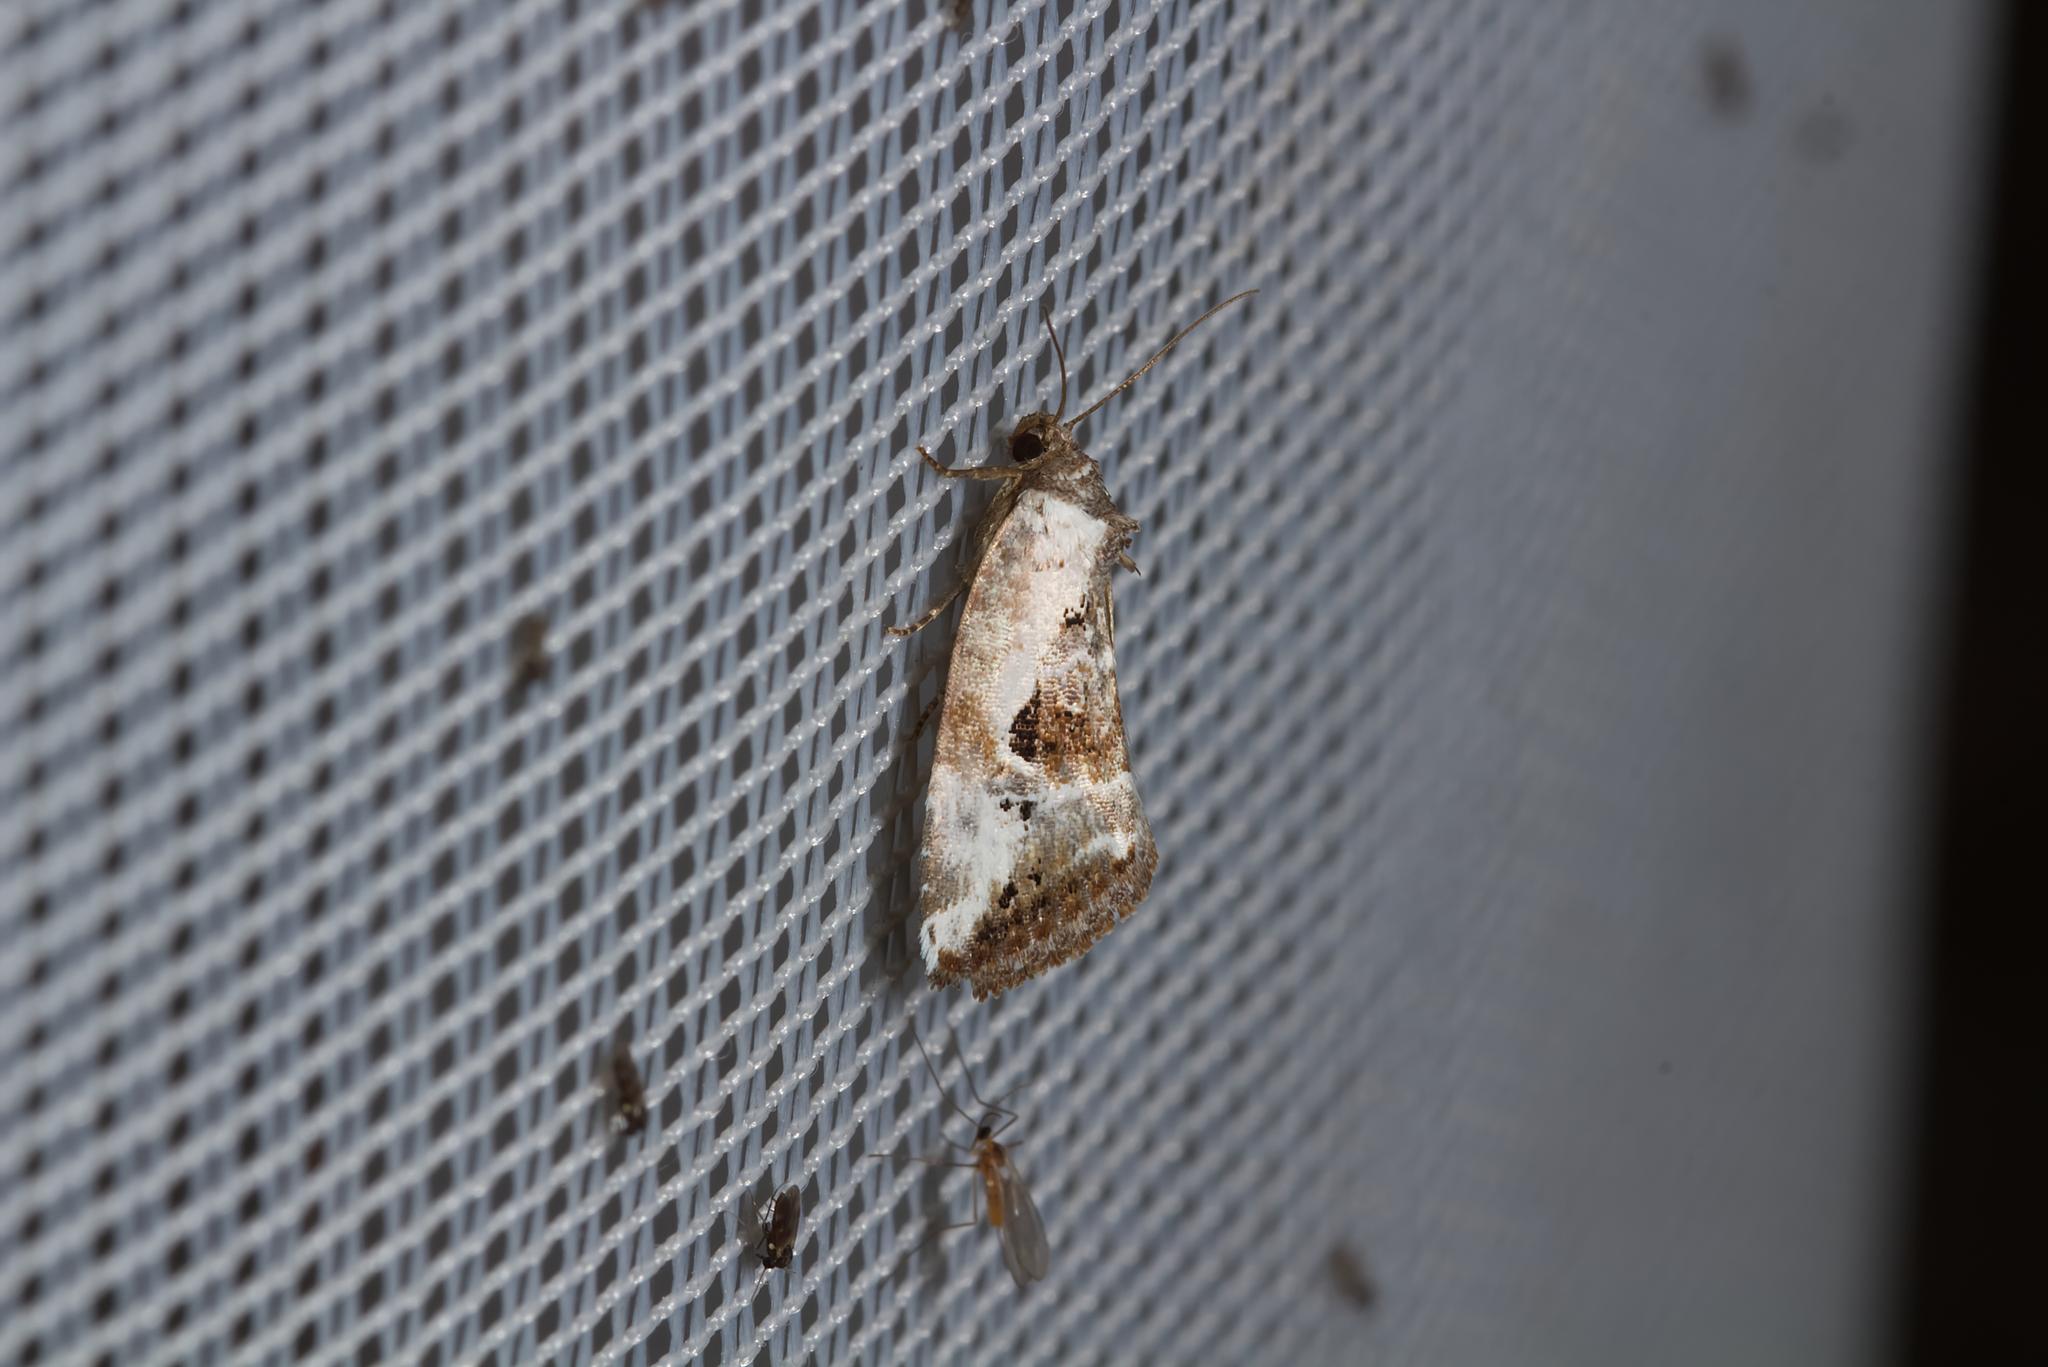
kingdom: Animalia
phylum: Arthropoda
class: Insecta
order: Lepidoptera
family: Noctuidae
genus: Elaphria
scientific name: Elaphria venustula
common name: Rosy marbled
